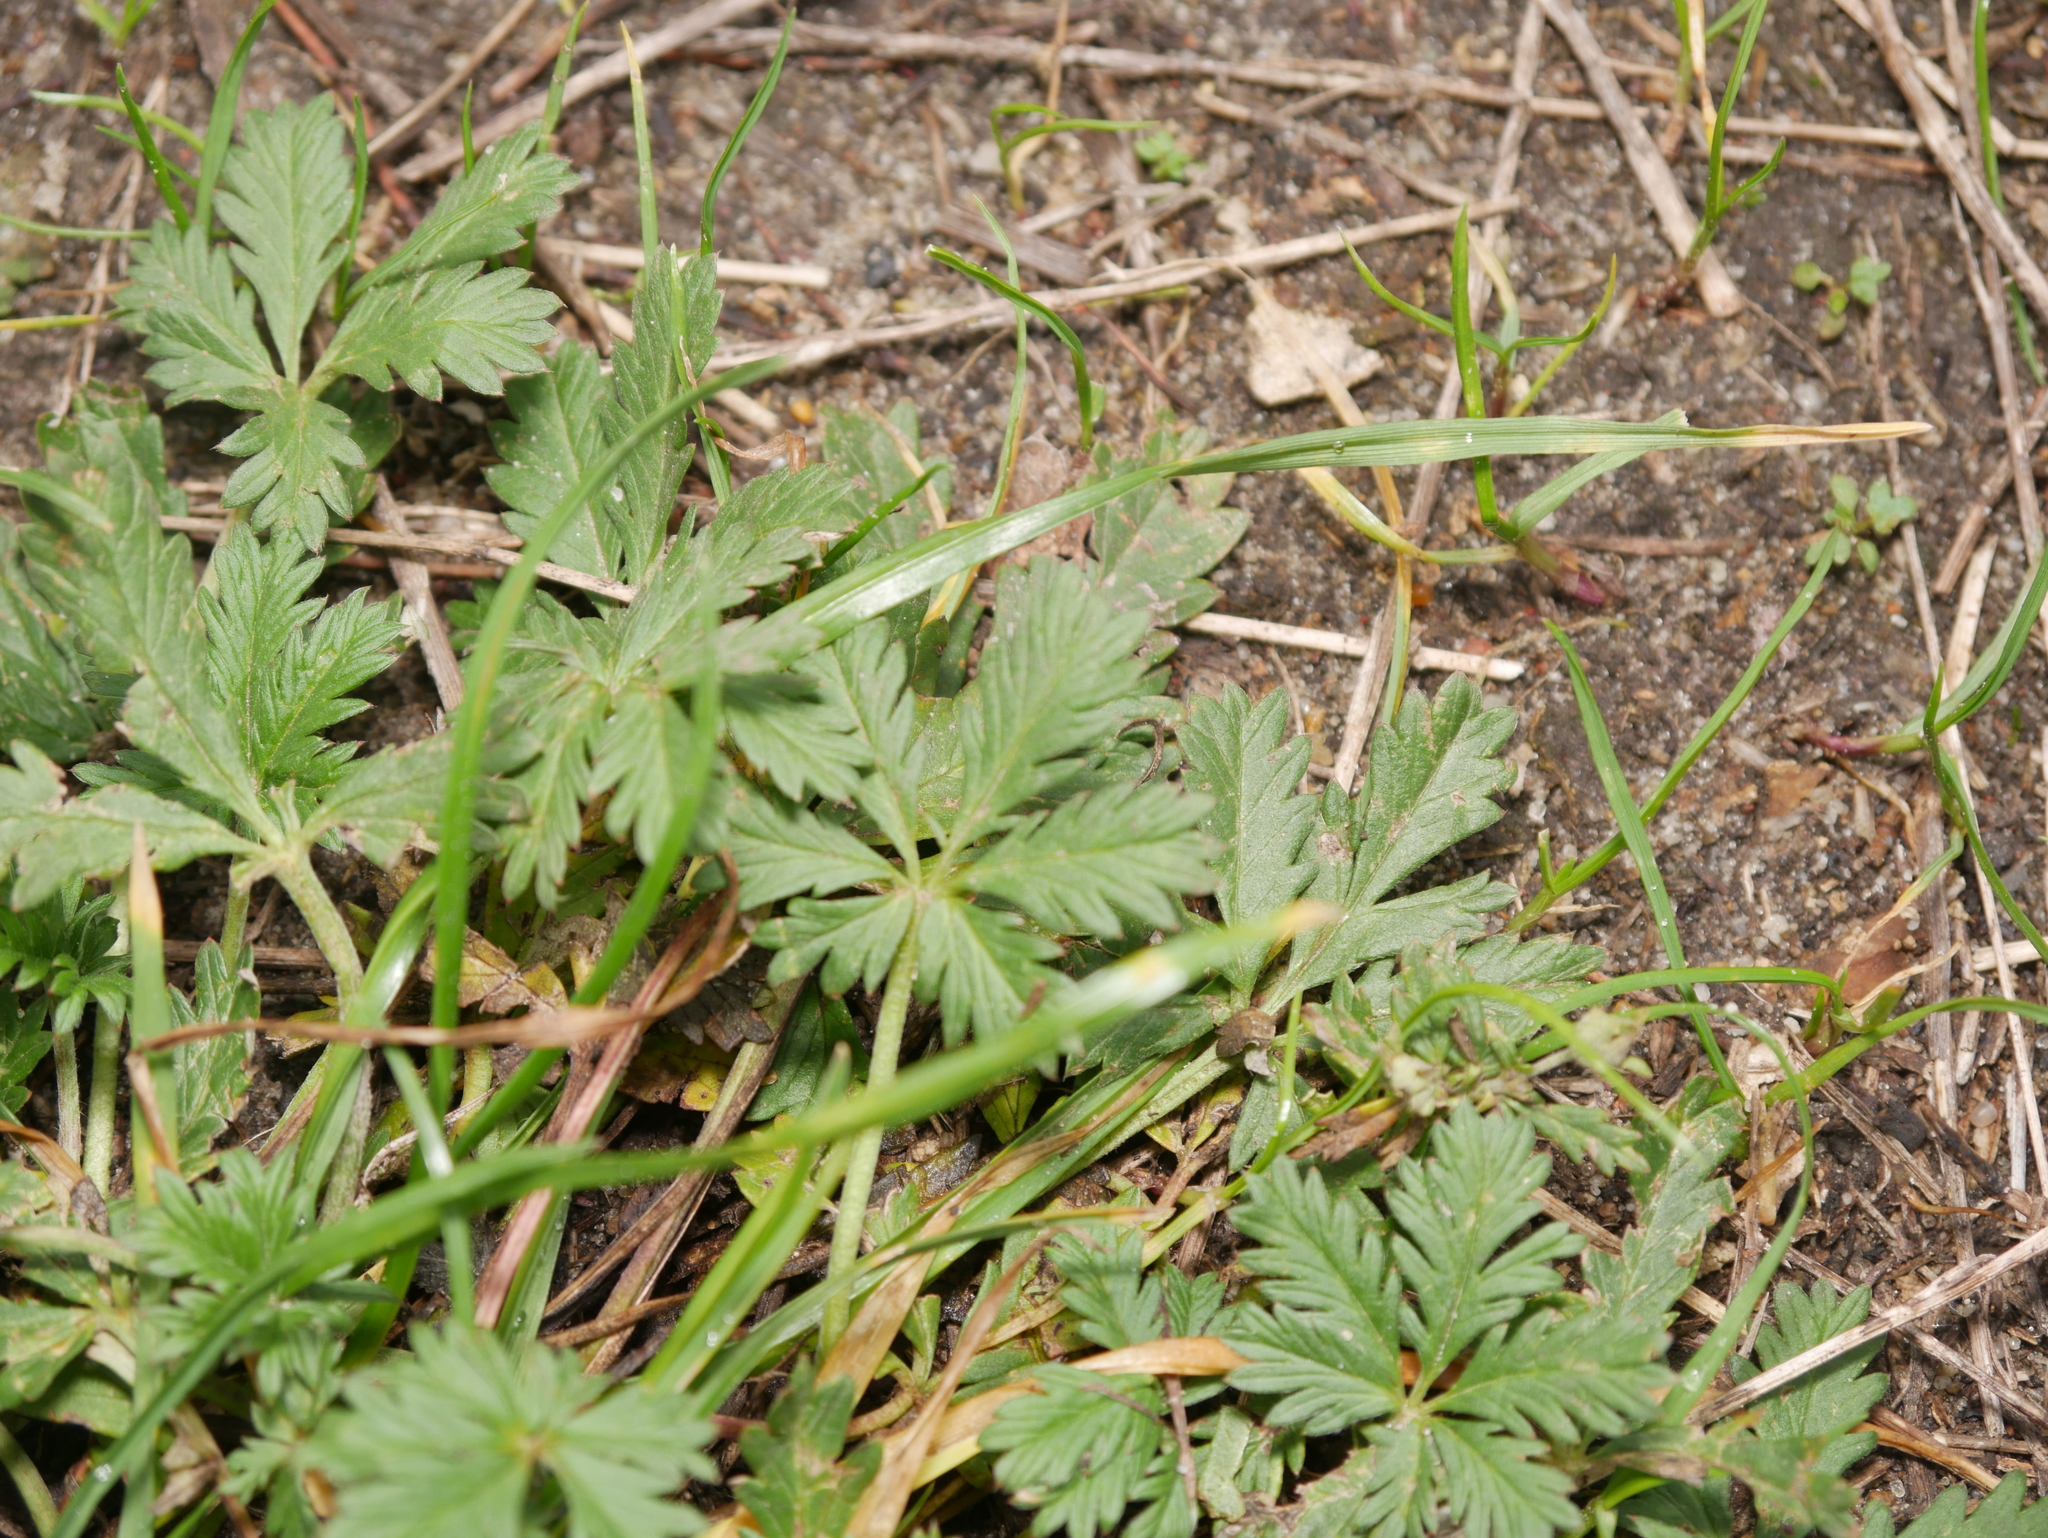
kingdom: Plantae
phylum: Tracheophyta
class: Magnoliopsida
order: Rosales
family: Rosaceae
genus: Potentilla
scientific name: Potentilla argentea
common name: Hoary cinquefoil
